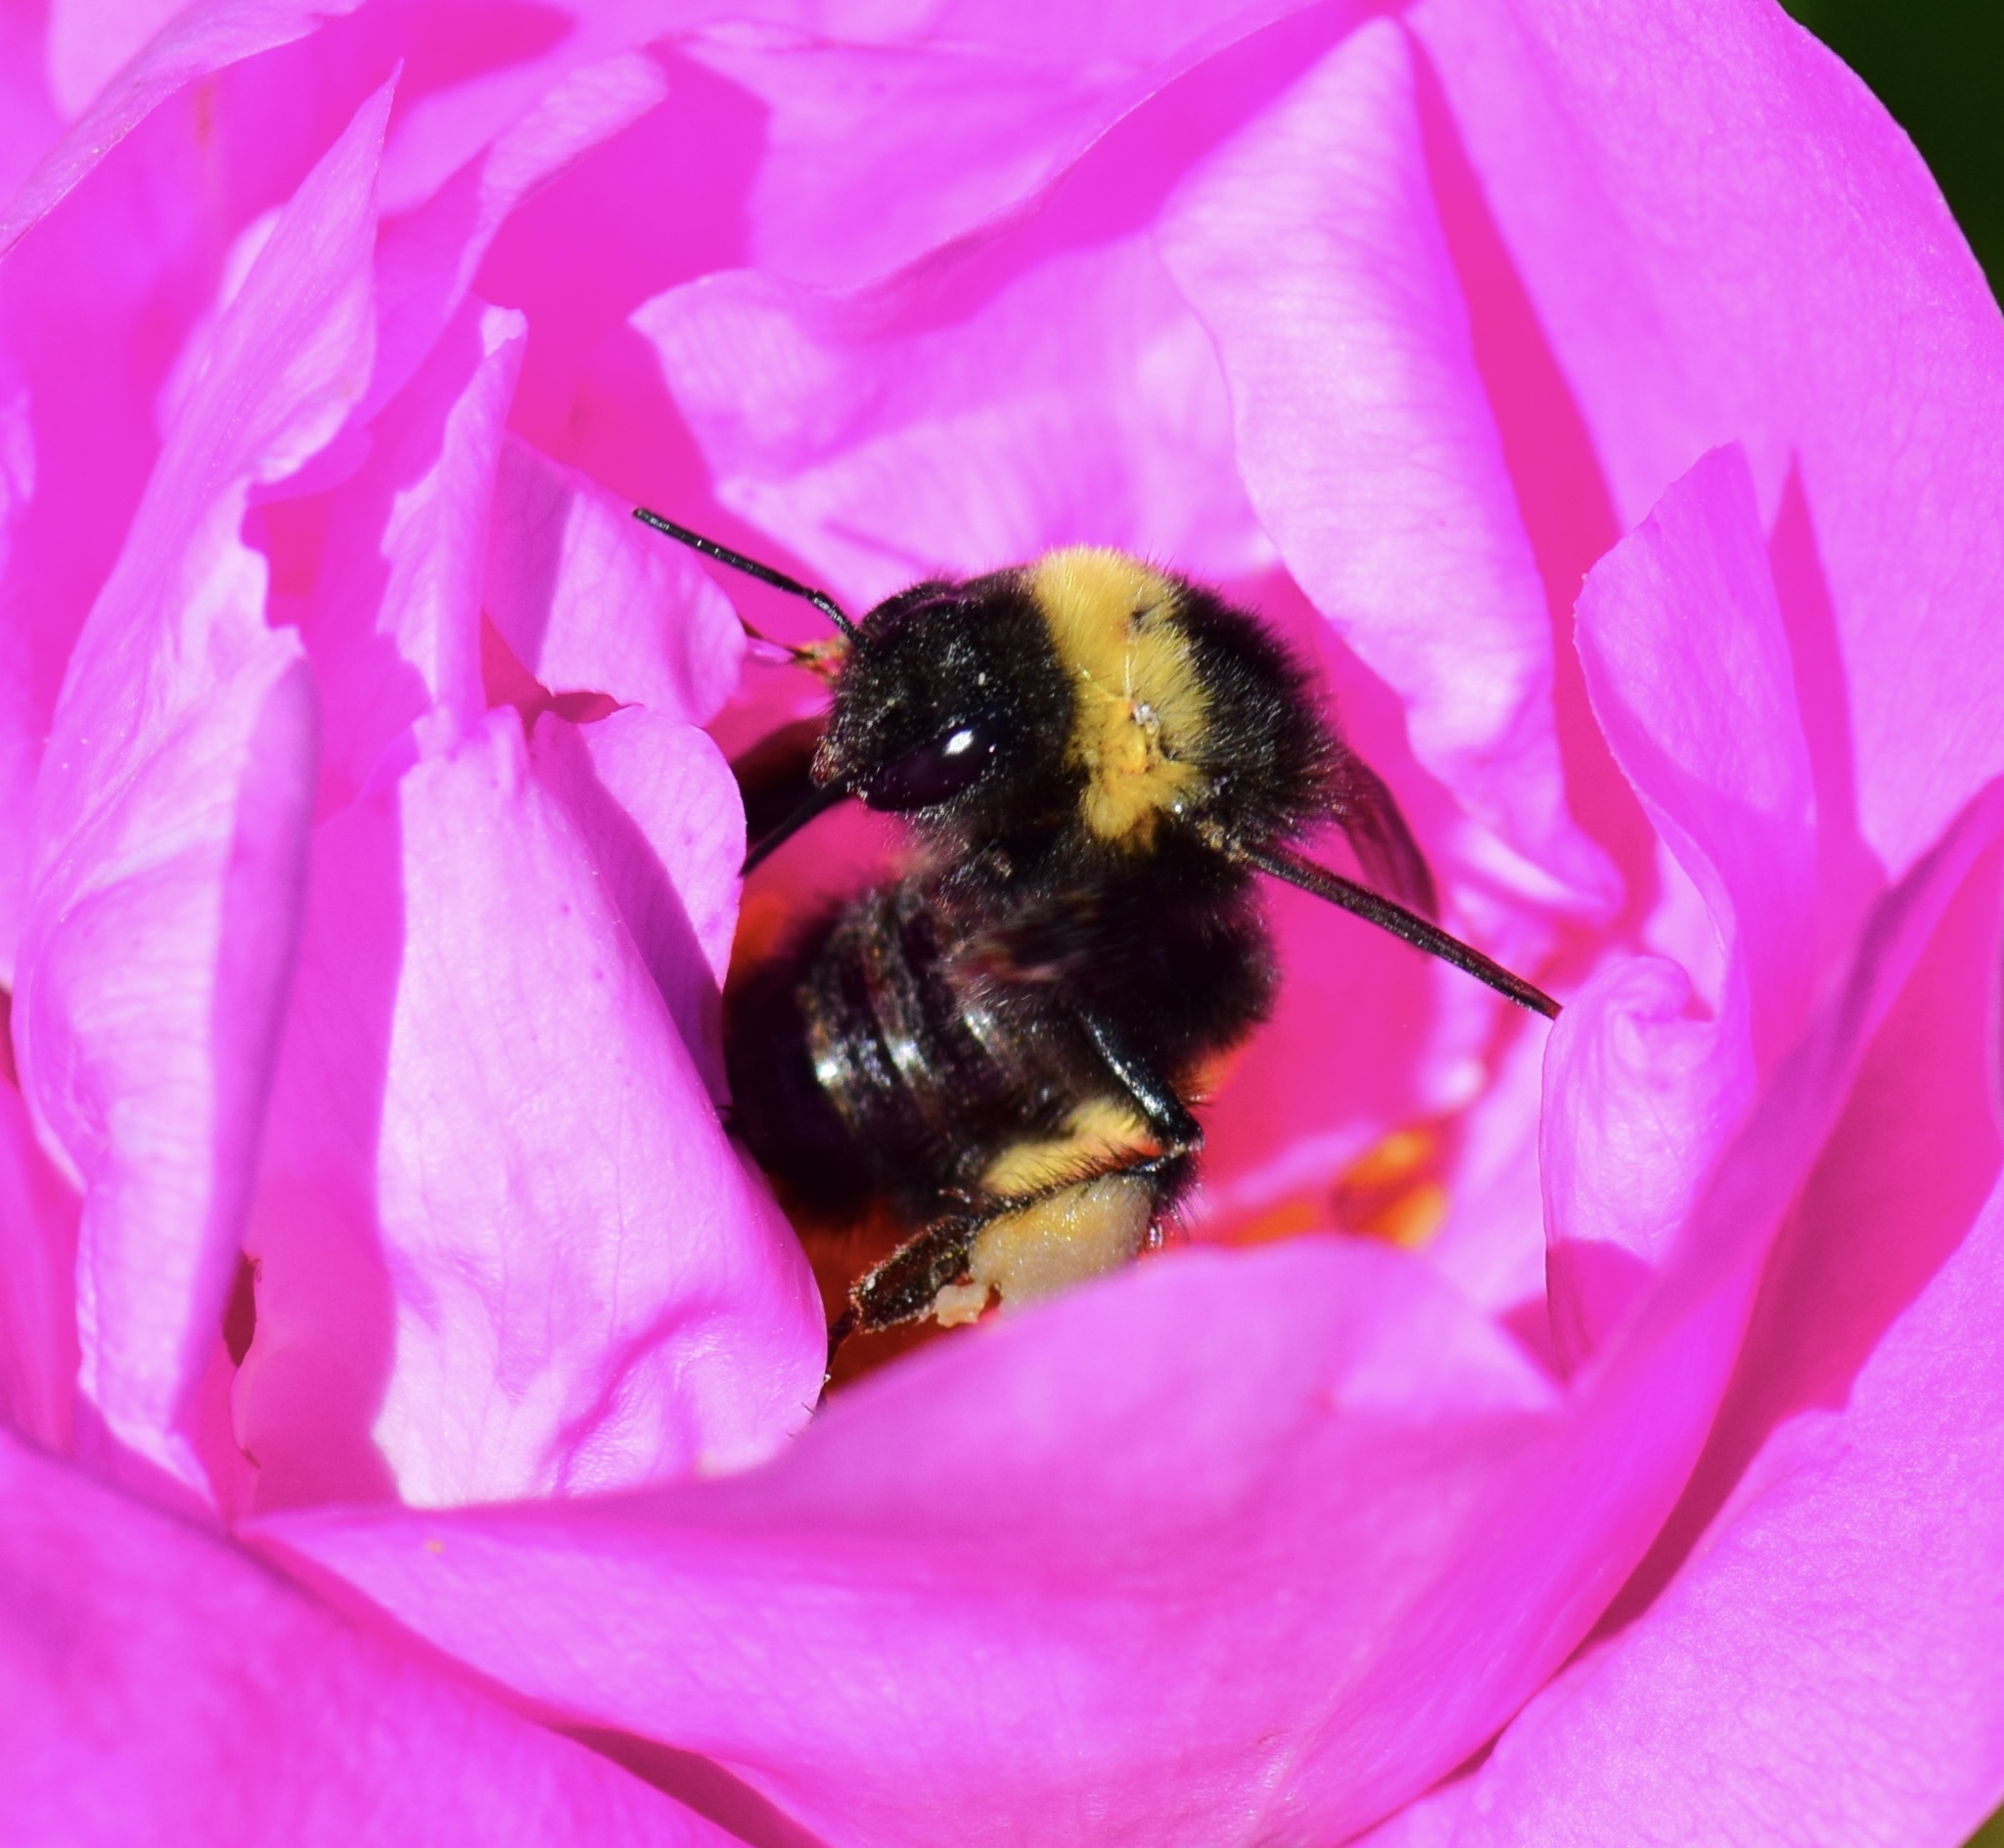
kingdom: Animalia
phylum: Arthropoda
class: Insecta
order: Hymenoptera
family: Apidae
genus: Bombus
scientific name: Bombus terricola
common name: Yellow-banded bumble bee
